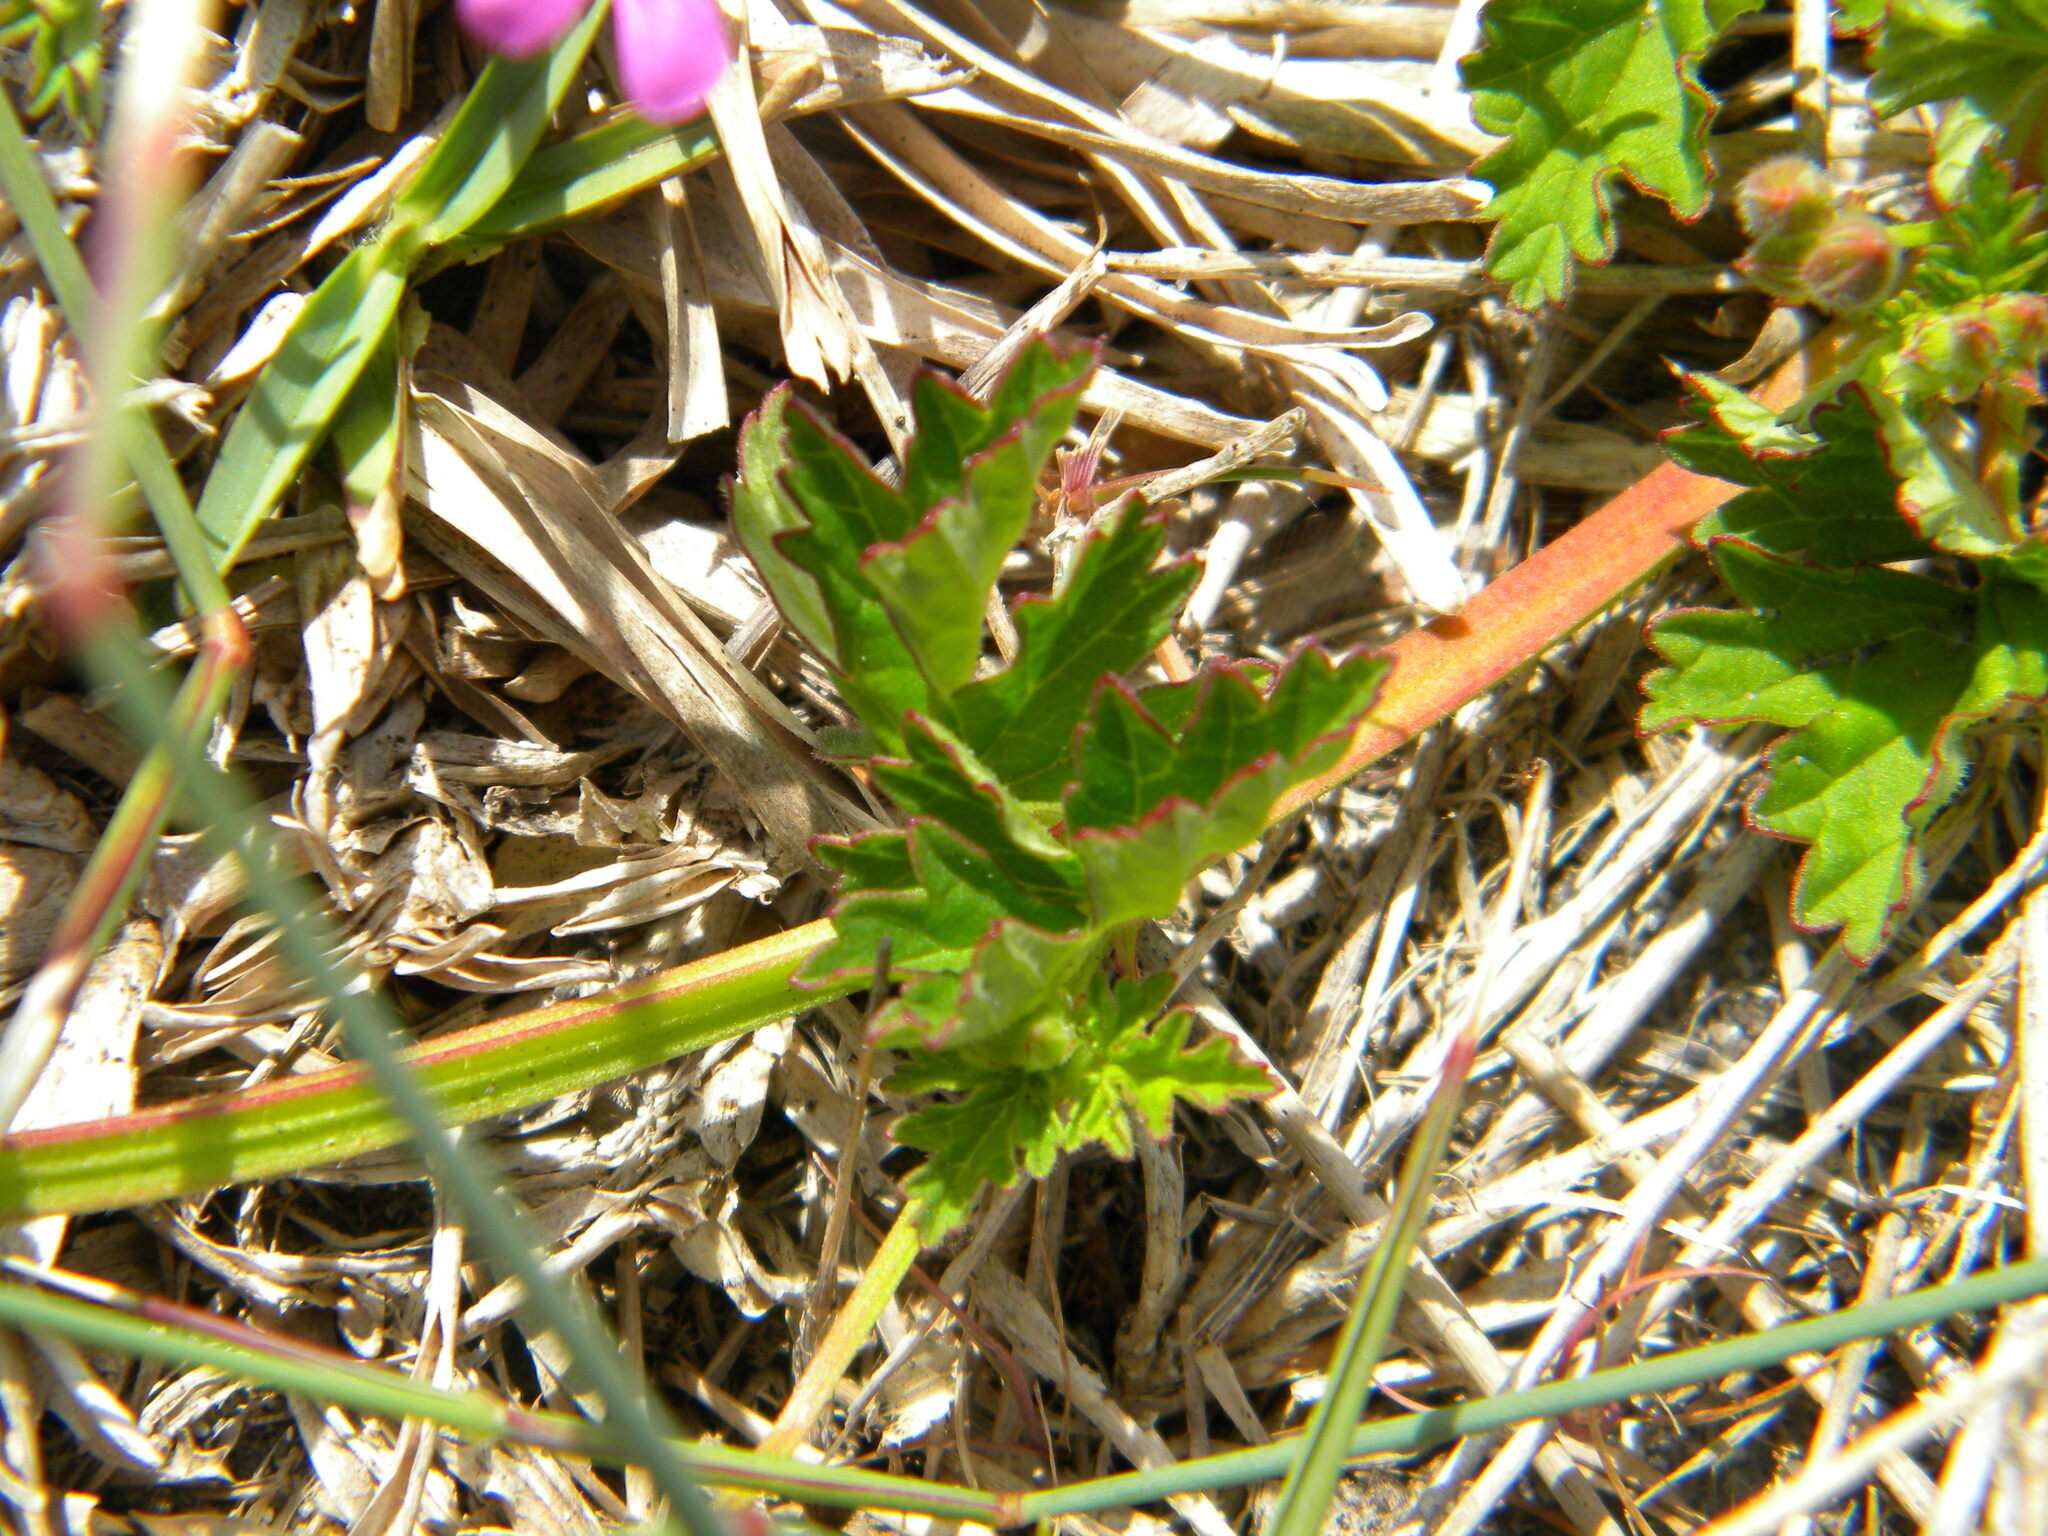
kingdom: Plantae
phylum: Tracheophyta
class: Magnoliopsida
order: Geraniales
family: Geraniaceae
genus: Pelargonium
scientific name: Pelargonium grossularioides
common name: Gooseberry geranium
